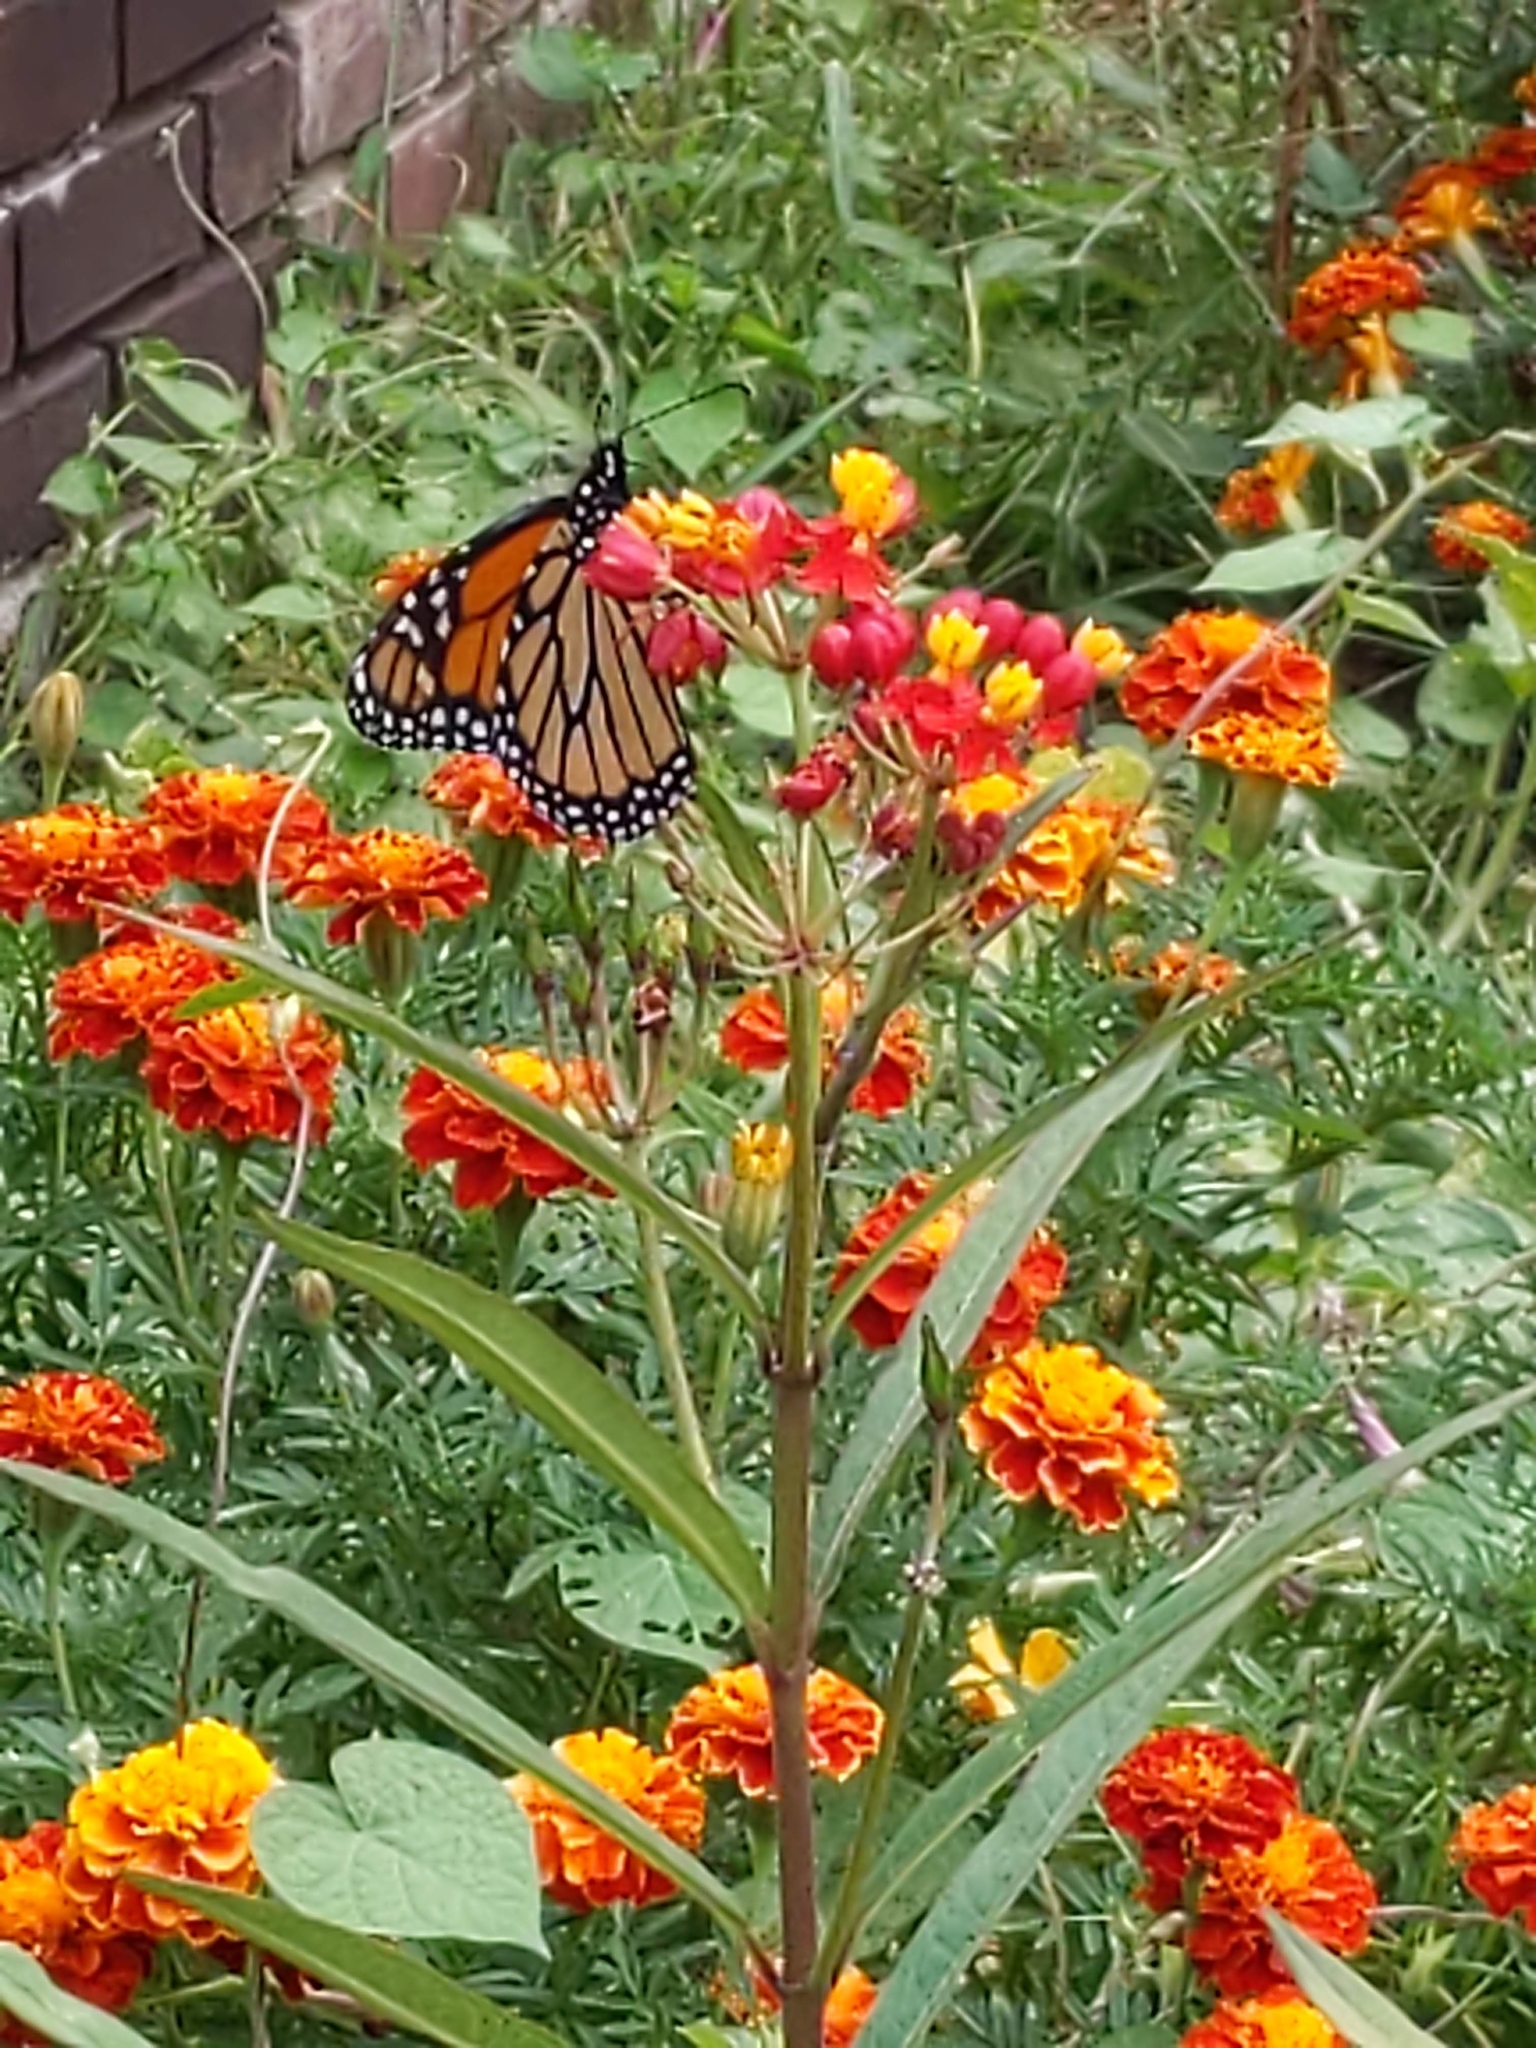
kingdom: Animalia
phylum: Arthropoda
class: Insecta
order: Lepidoptera
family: Nymphalidae
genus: Danaus
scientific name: Danaus plexippus
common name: Monarch
